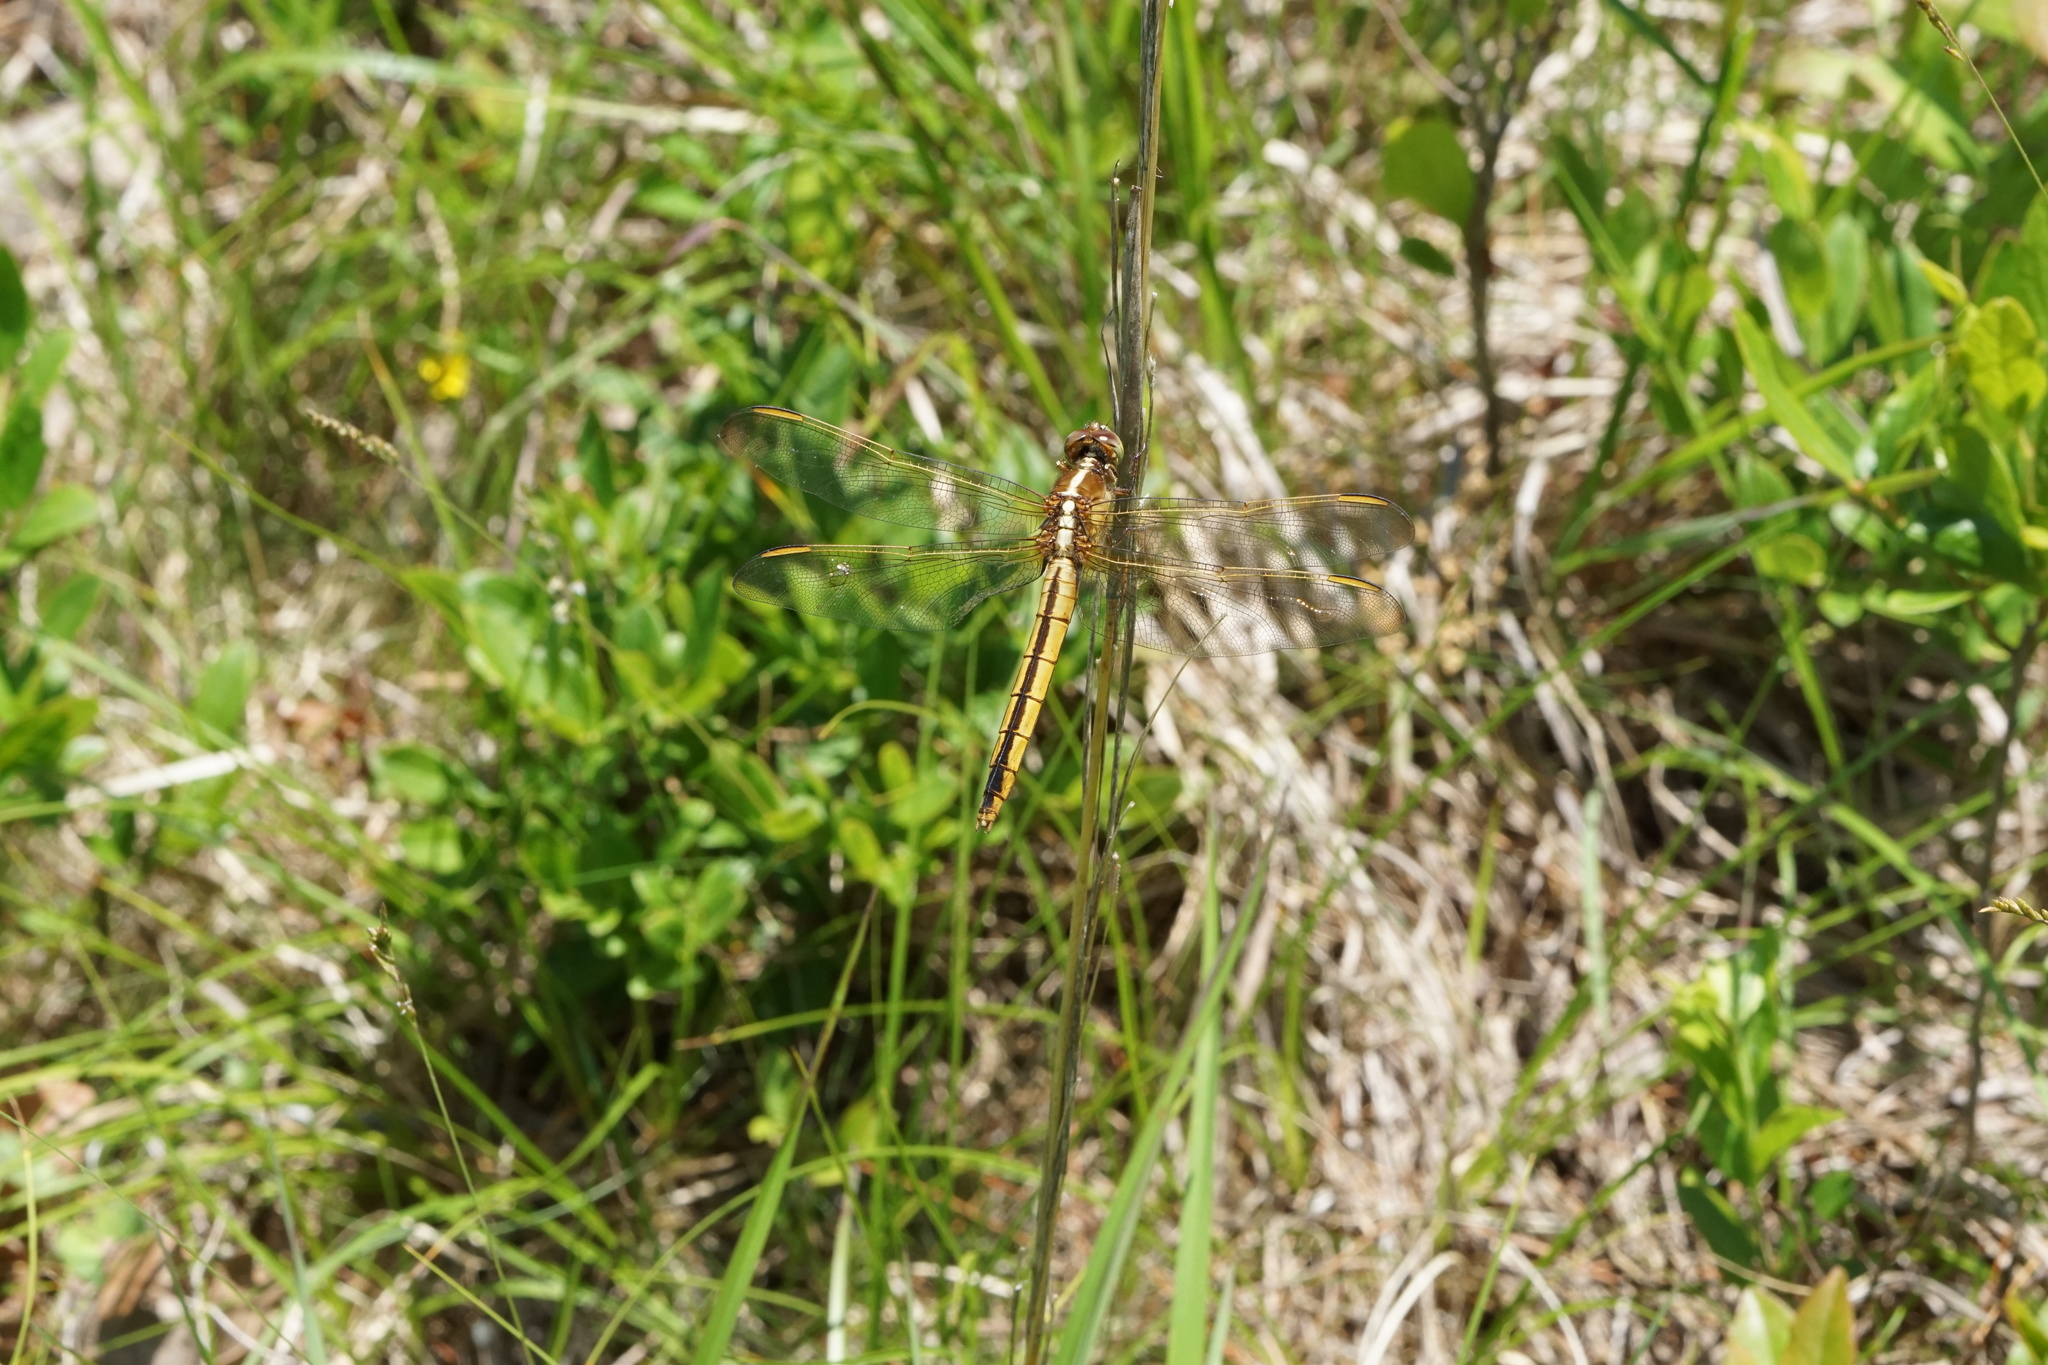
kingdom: Animalia
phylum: Arthropoda
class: Insecta
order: Odonata
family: Libellulidae
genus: Libellula
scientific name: Libellula needhami
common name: Needham's skimmer
